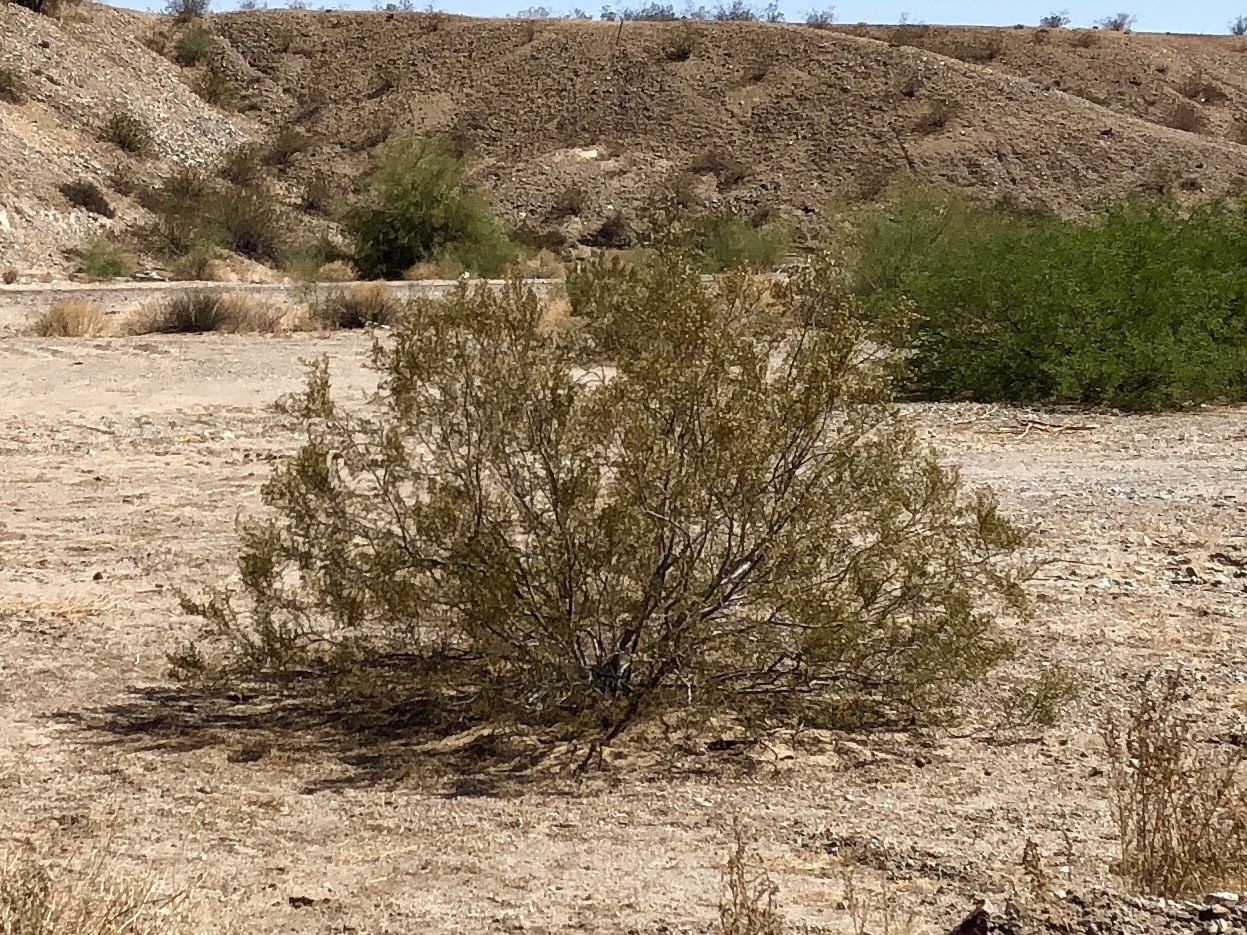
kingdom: Plantae
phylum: Tracheophyta
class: Magnoliopsida
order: Zygophyllales
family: Zygophyllaceae
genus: Larrea
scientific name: Larrea tridentata
